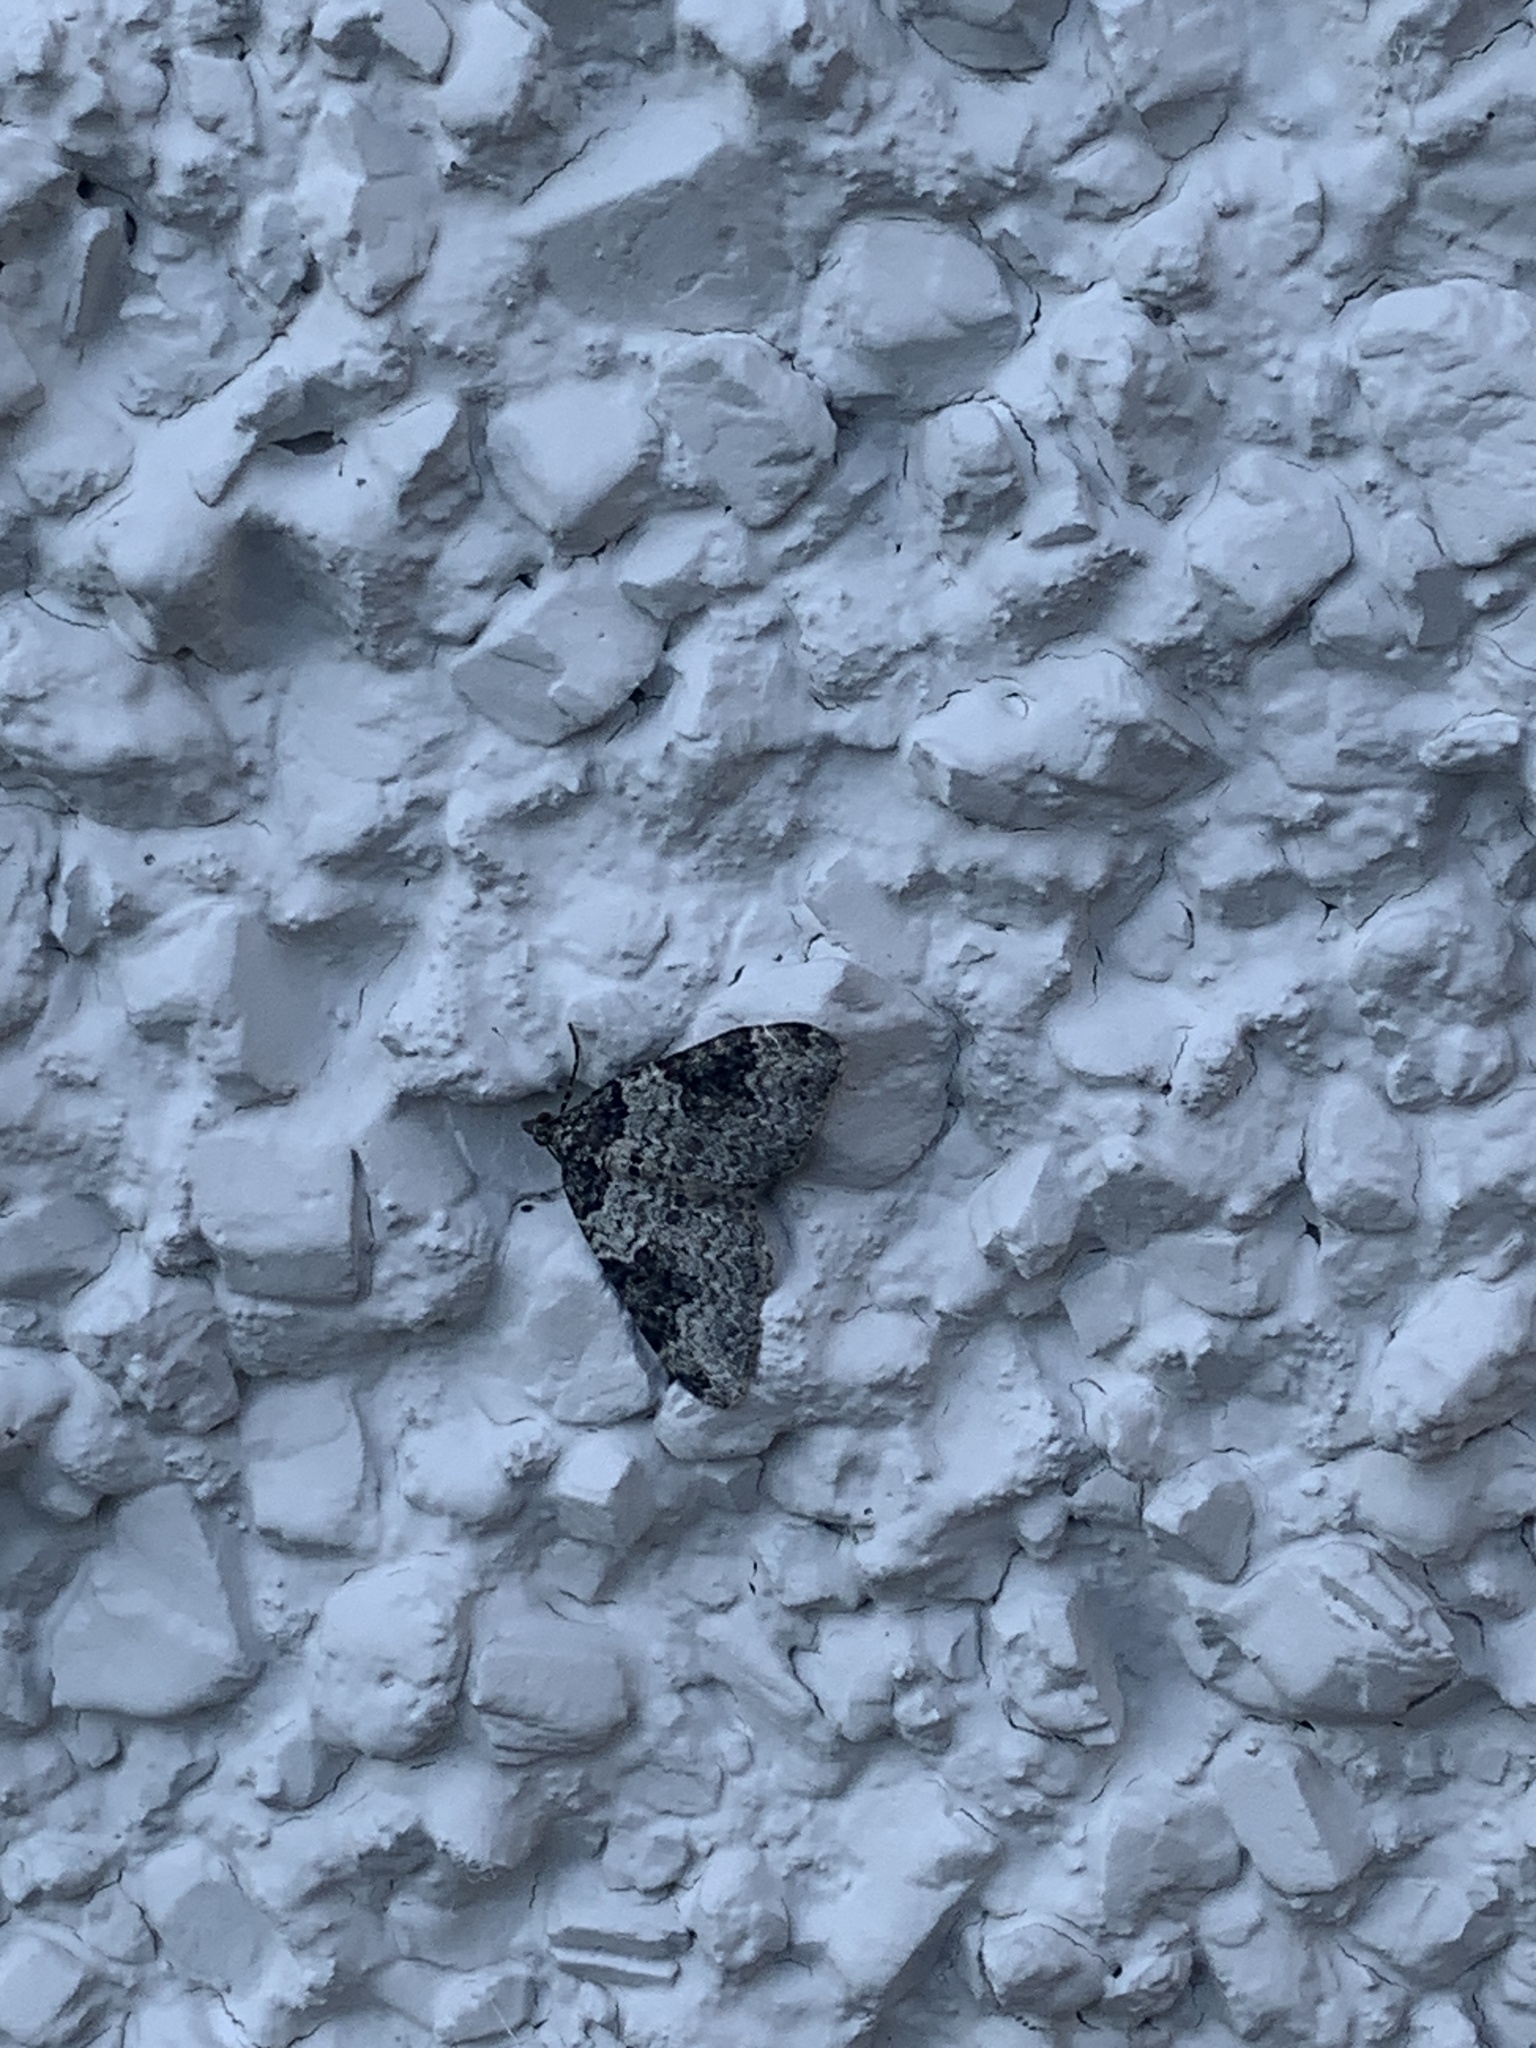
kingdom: Animalia
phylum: Arthropoda
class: Insecta
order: Lepidoptera
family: Geometridae
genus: Xanthorhoe
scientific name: Xanthorhoe fluctuata
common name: Garden carpet
